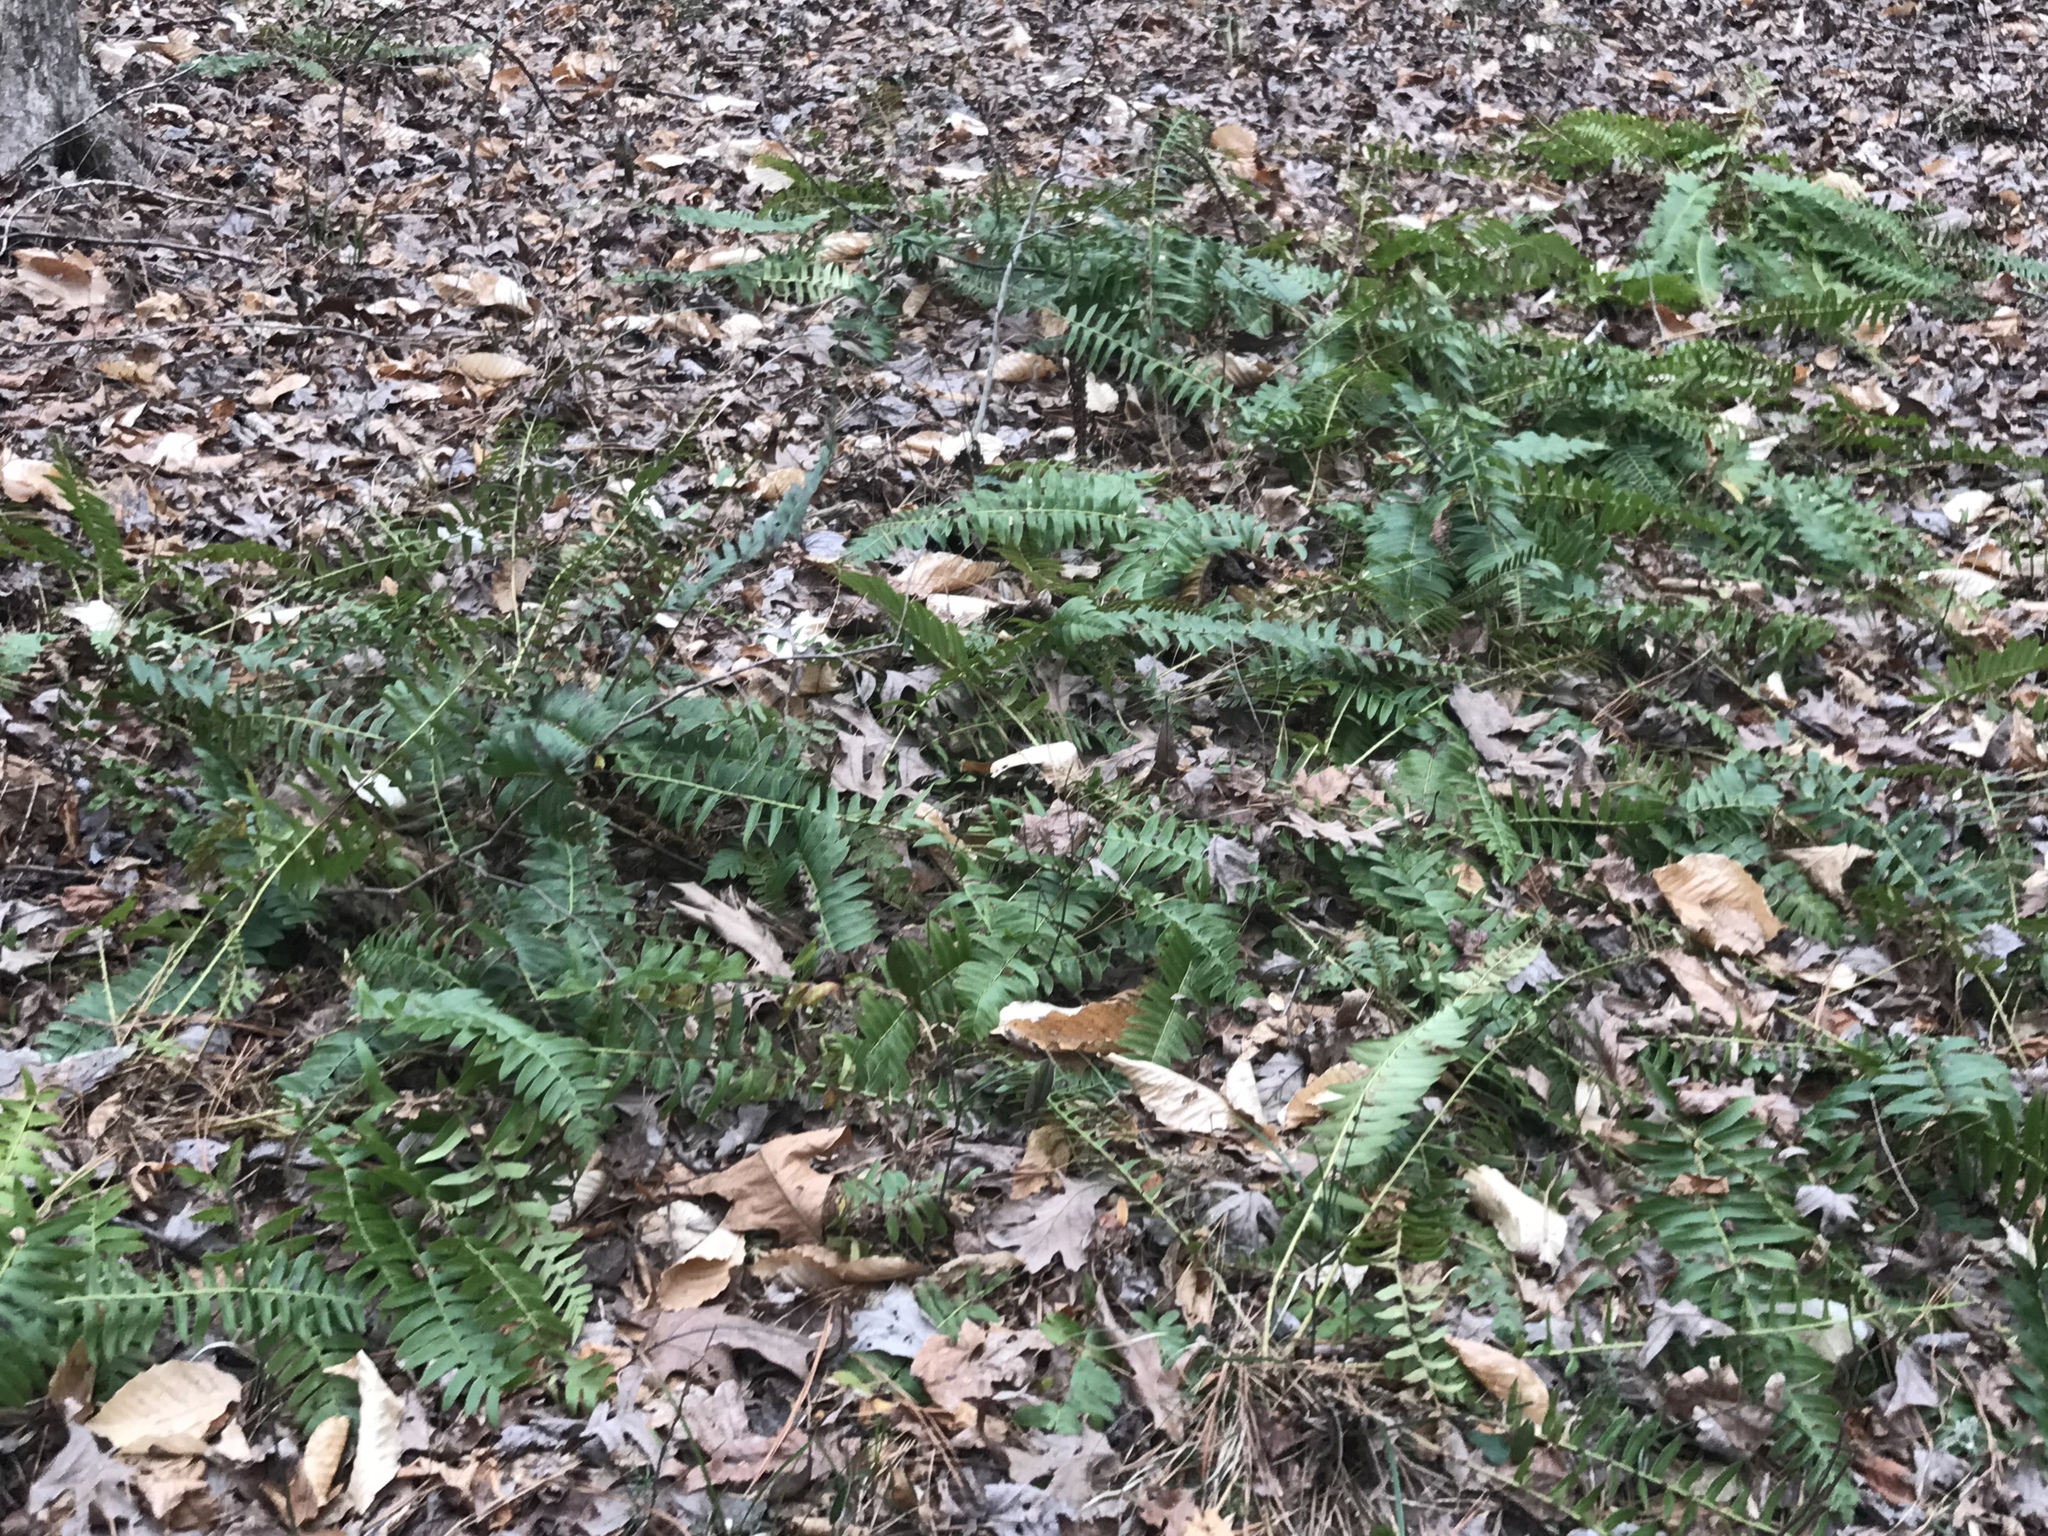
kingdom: Plantae
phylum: Tracheophyta
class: Polypodiopsida
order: Polypodiales
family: Dryopteridaceae
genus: Polystichum
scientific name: Polystichum acrostichoides
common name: Christmas fern
